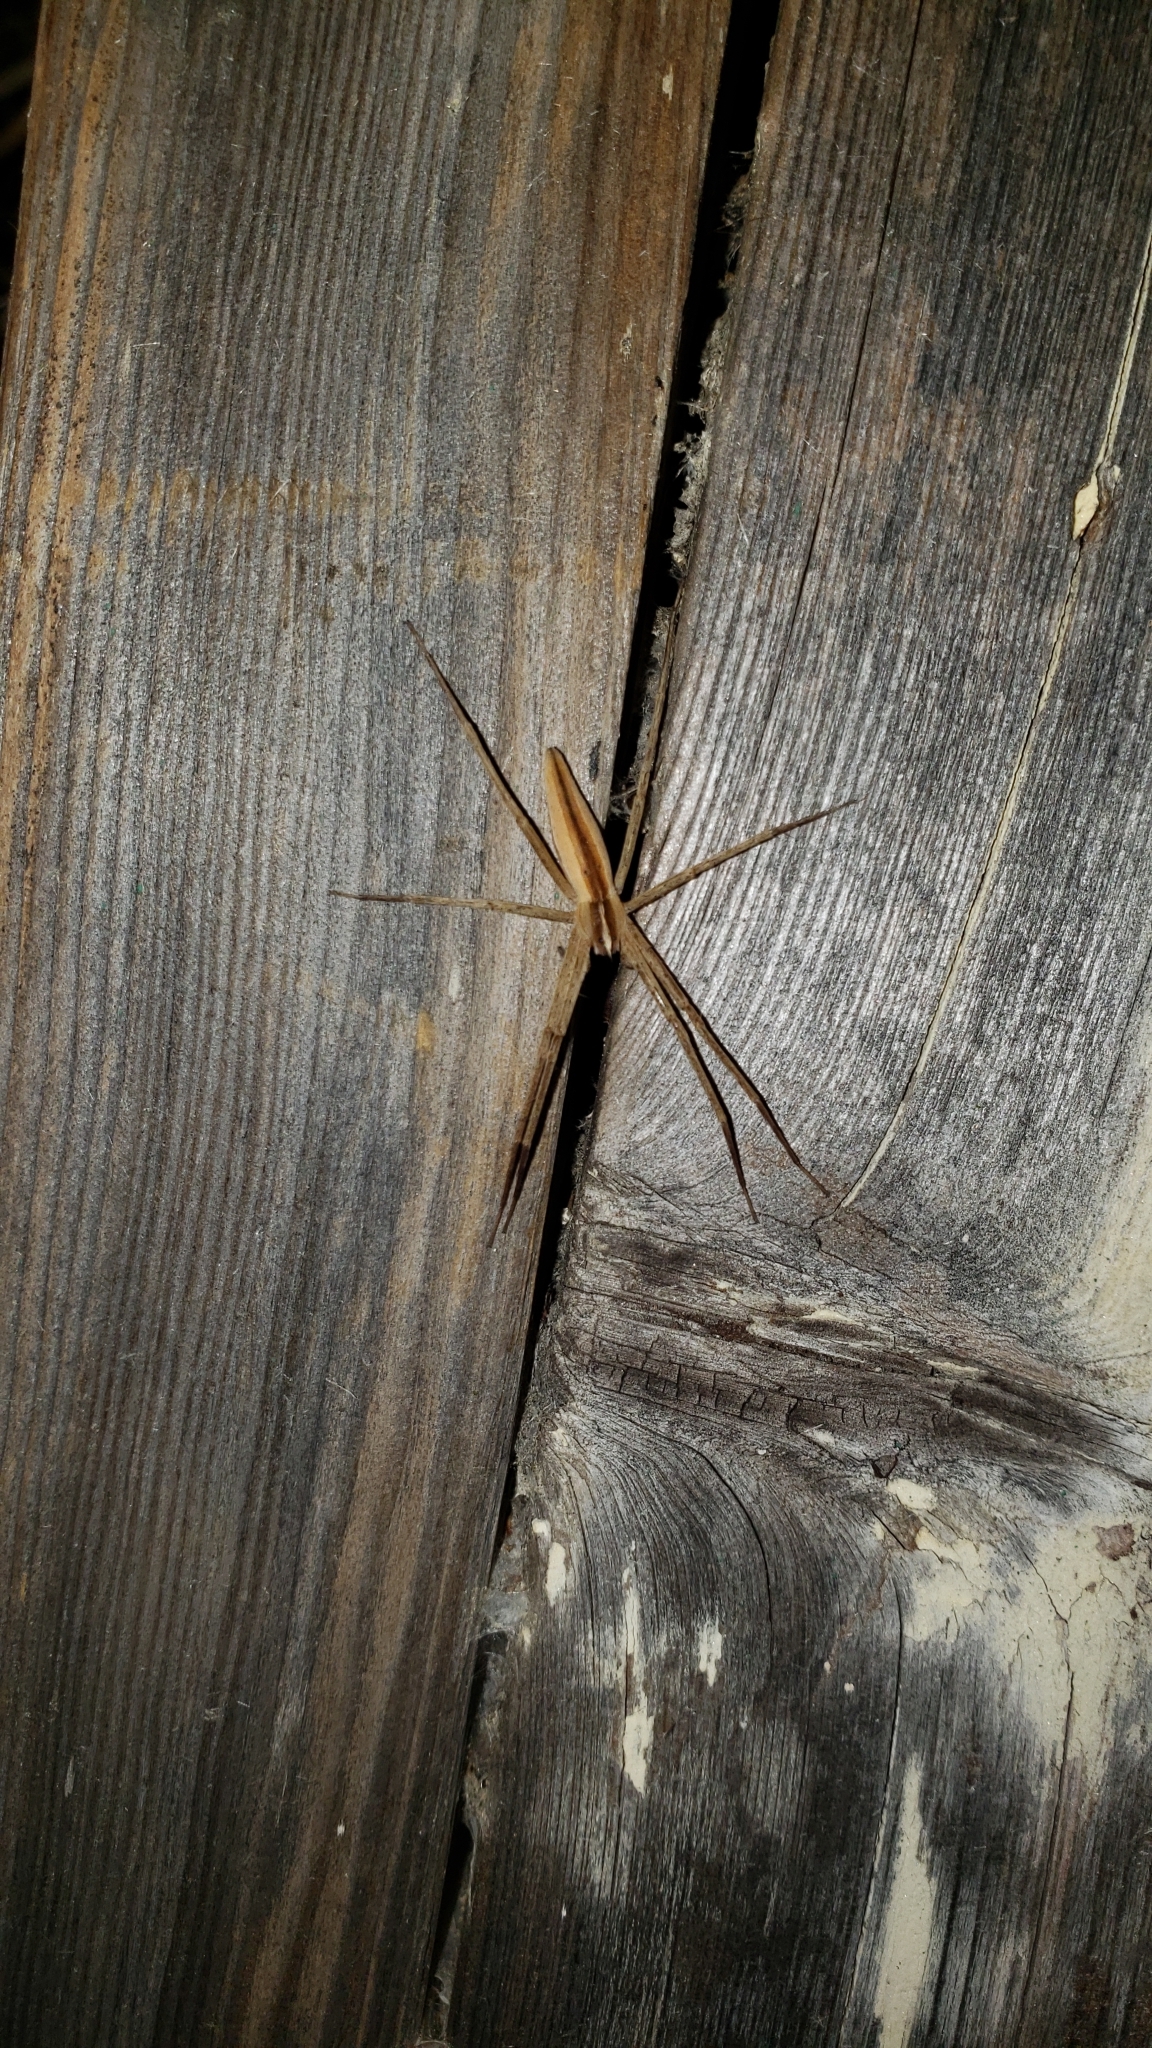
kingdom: Animalia
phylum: Arthropoda
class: Arachnida
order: Araneae
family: Pisauridae
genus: Pisaurina
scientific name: Pisaurina dubia
